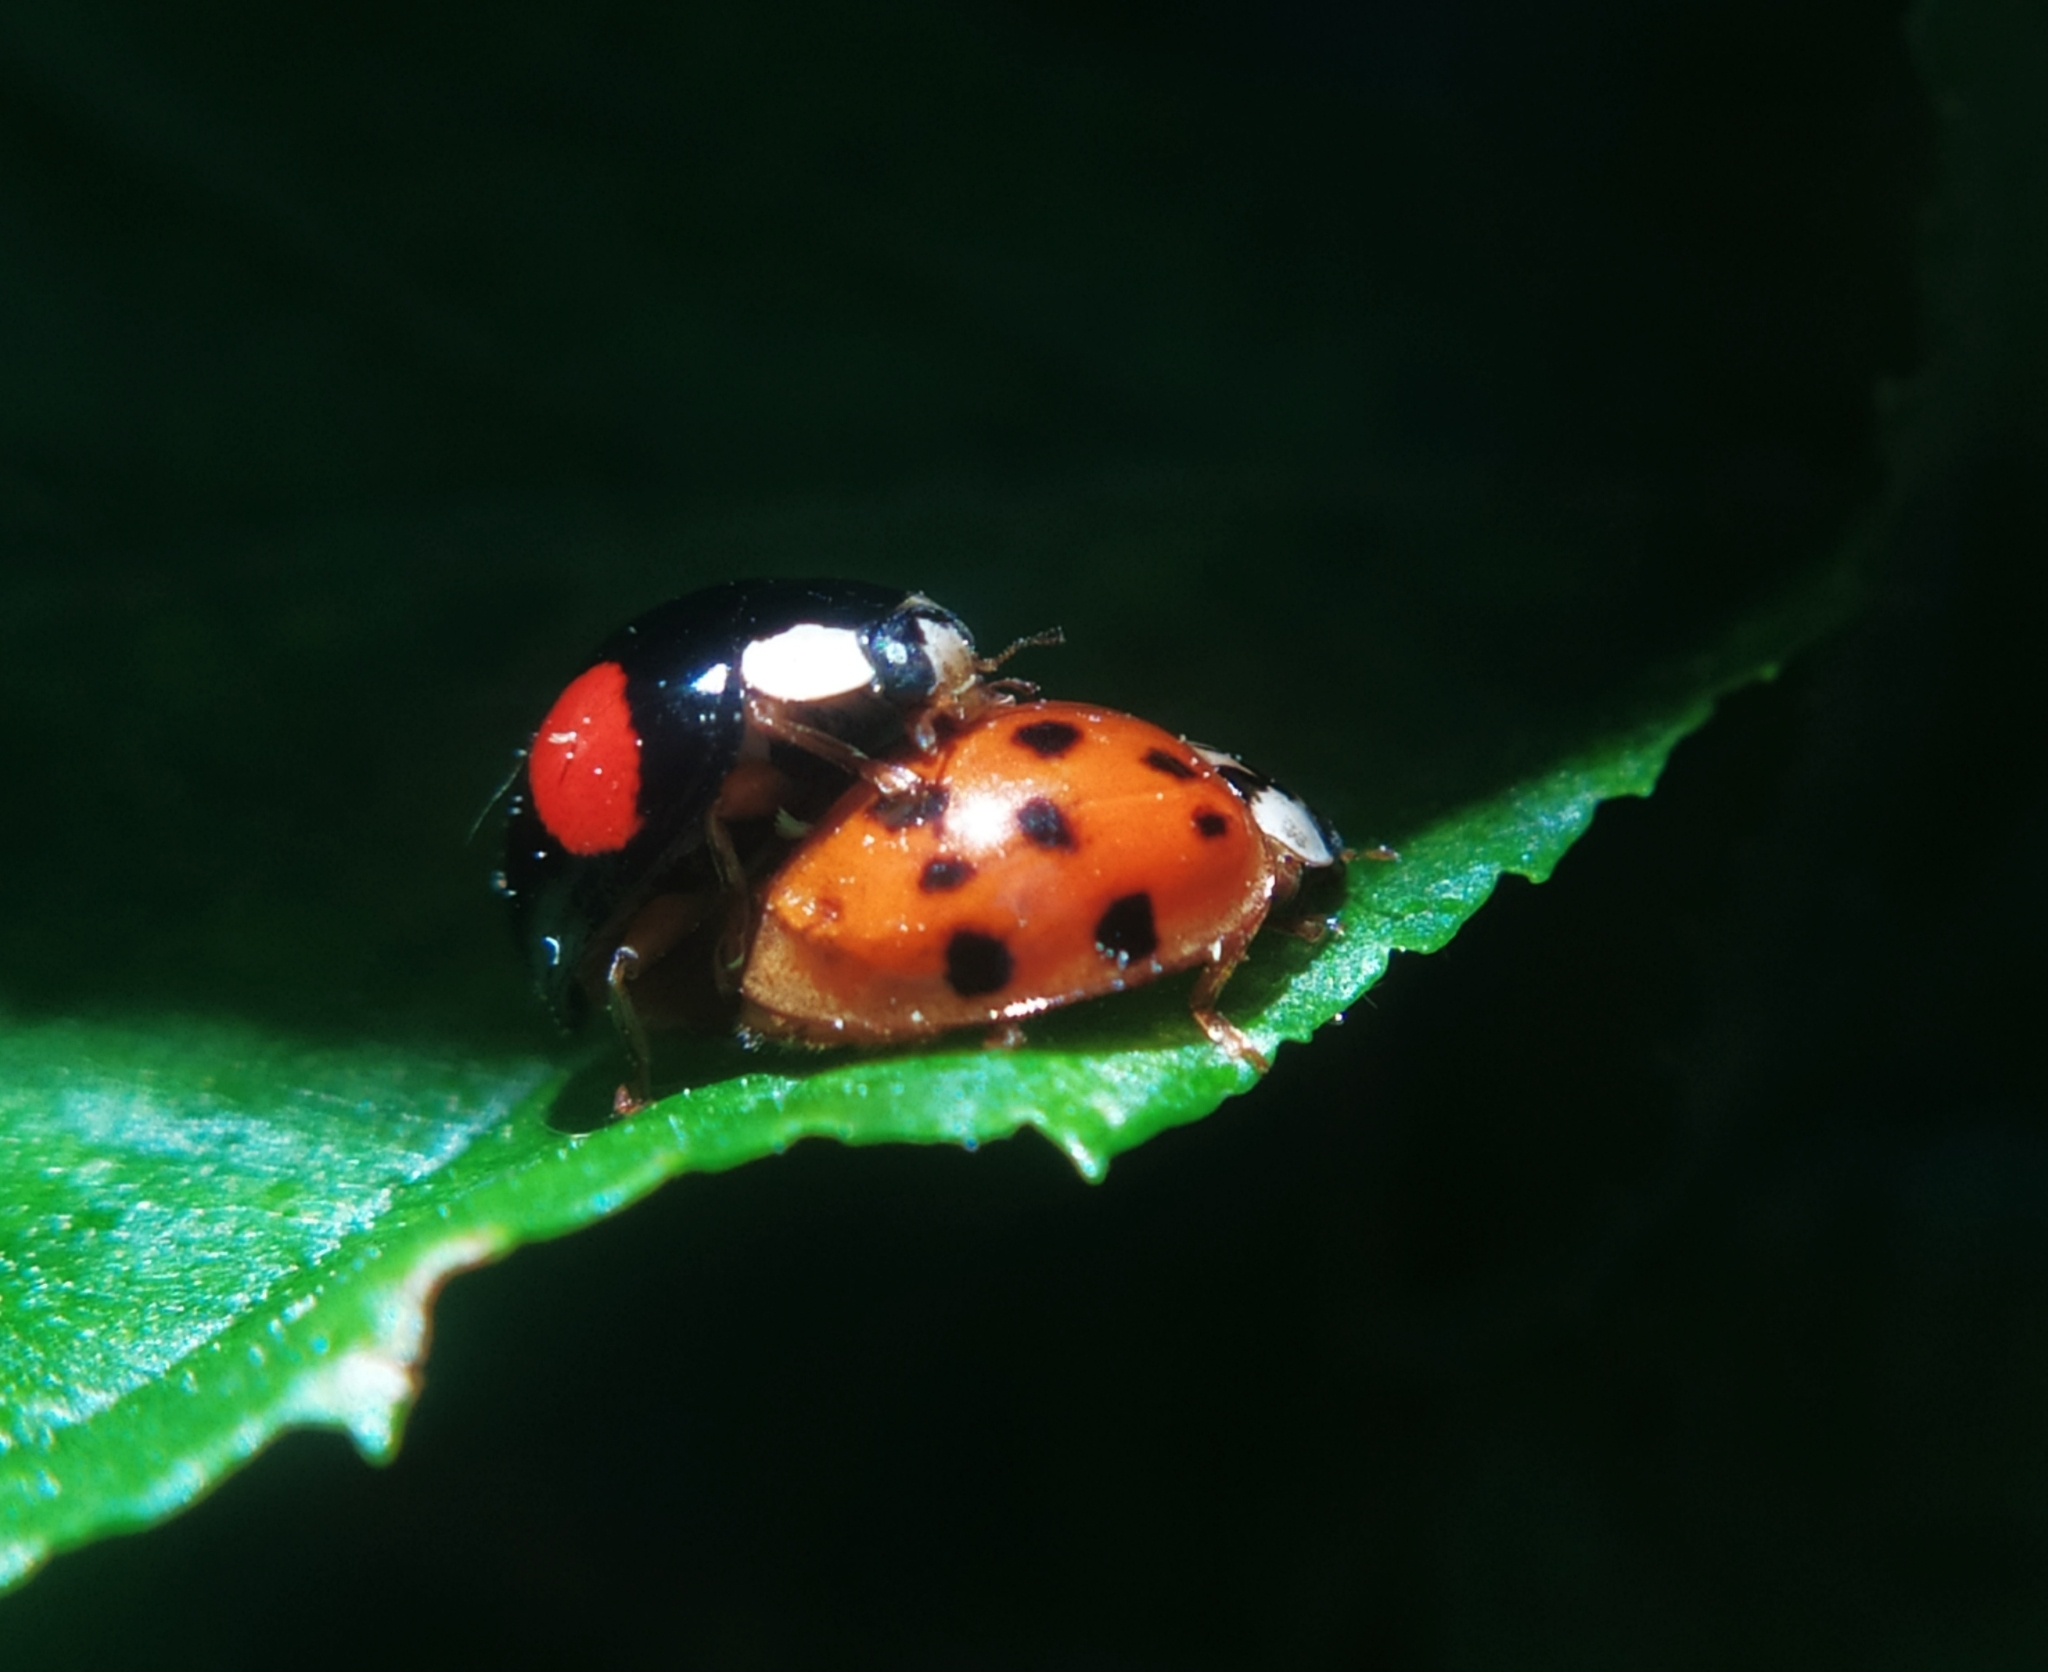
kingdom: Animalia
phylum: Arthropoda
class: Insecta
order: Coleoptera
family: Coccinellidae
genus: Harmonia
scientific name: Harmonia axyridis
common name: Harlequin ladybird
